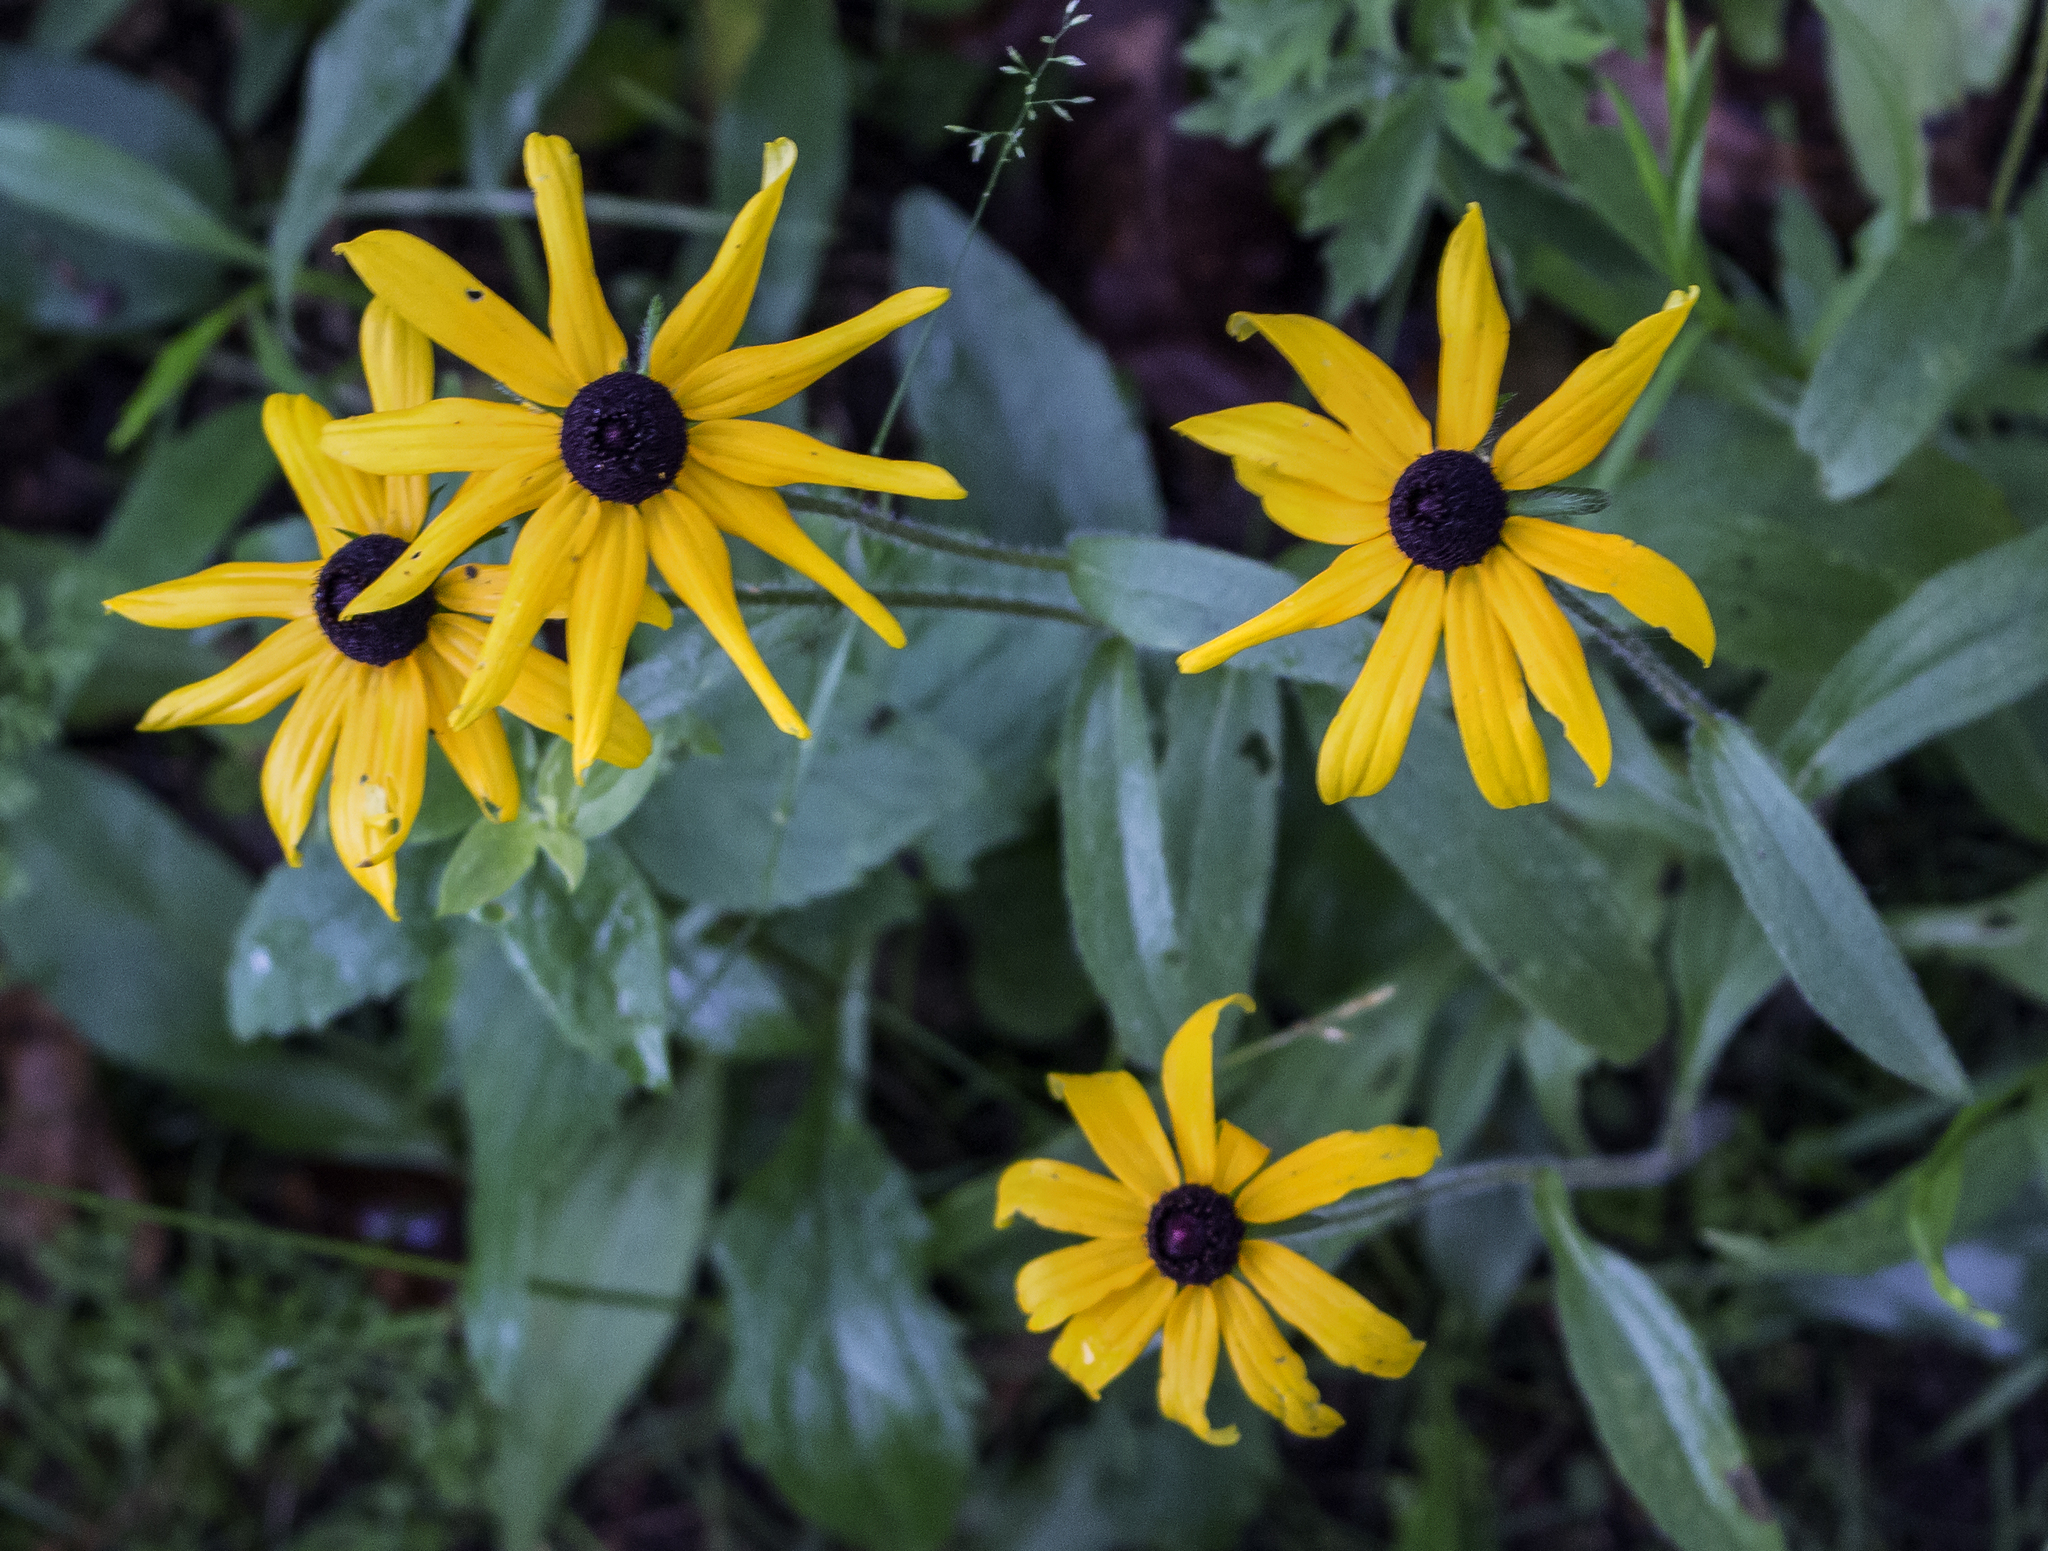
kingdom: Plantae
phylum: Tracheophyta
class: Magnoliopsida
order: Asterales
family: Asteraceae
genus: Rudbeckia
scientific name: Rudbeckia hirta
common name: Black-eyed-susan
